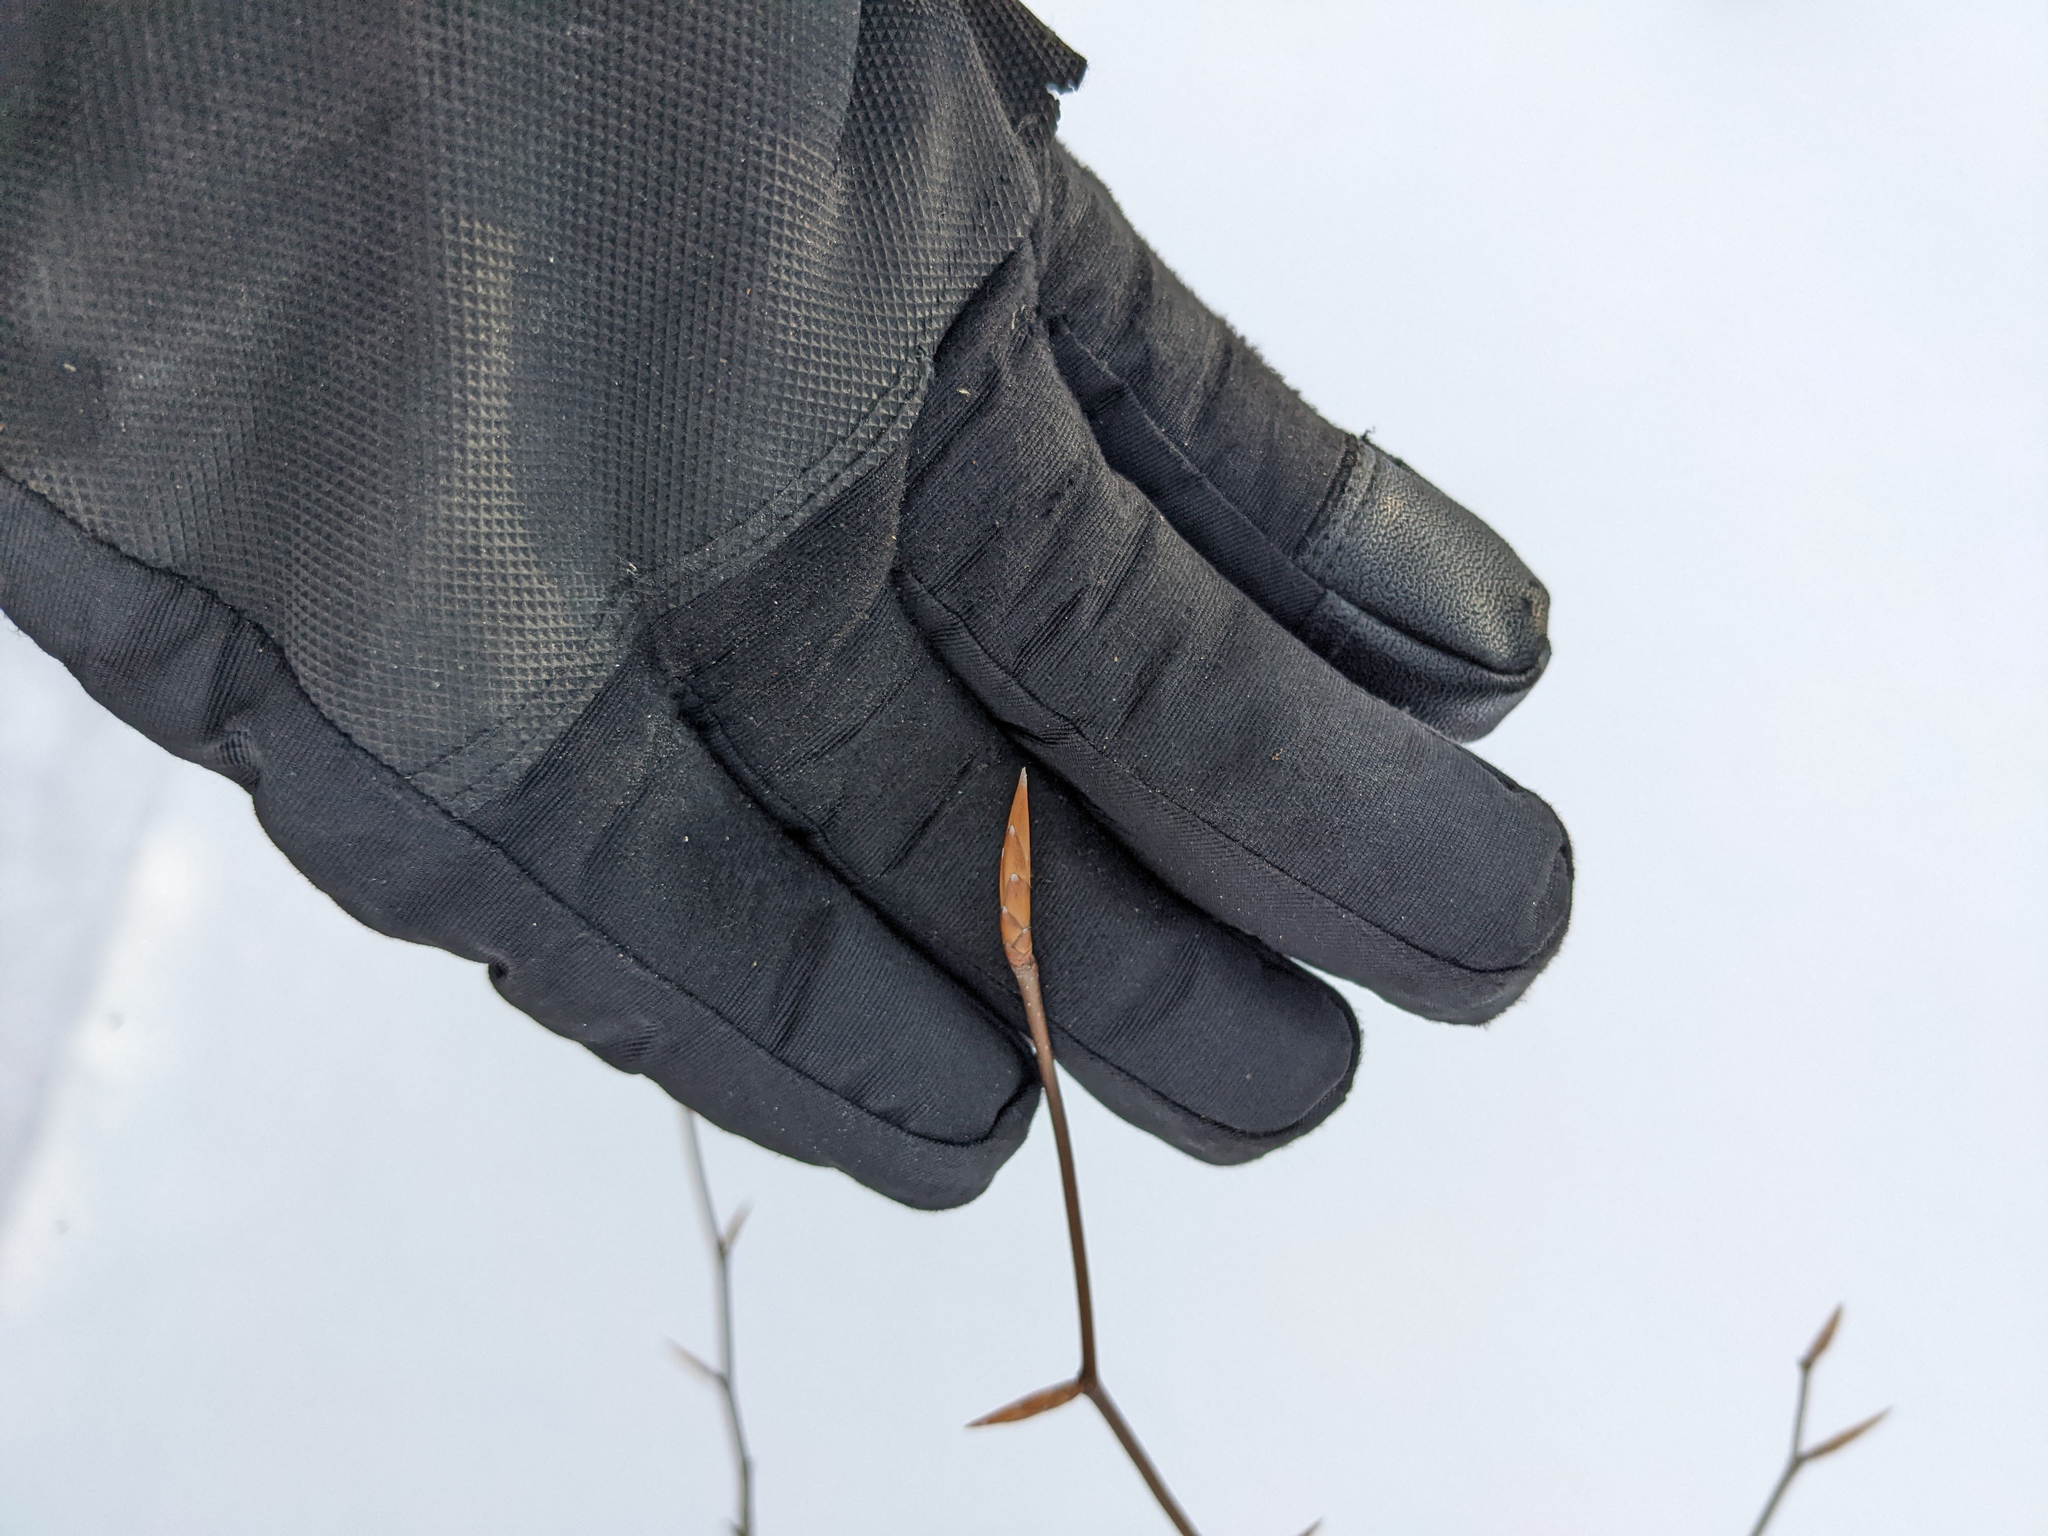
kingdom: Plantae
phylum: Tracheophyta
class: Magnoliopsida
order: Fagales
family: Fagaceae
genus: Fagus
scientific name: Fagus grandifolia
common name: American beech
